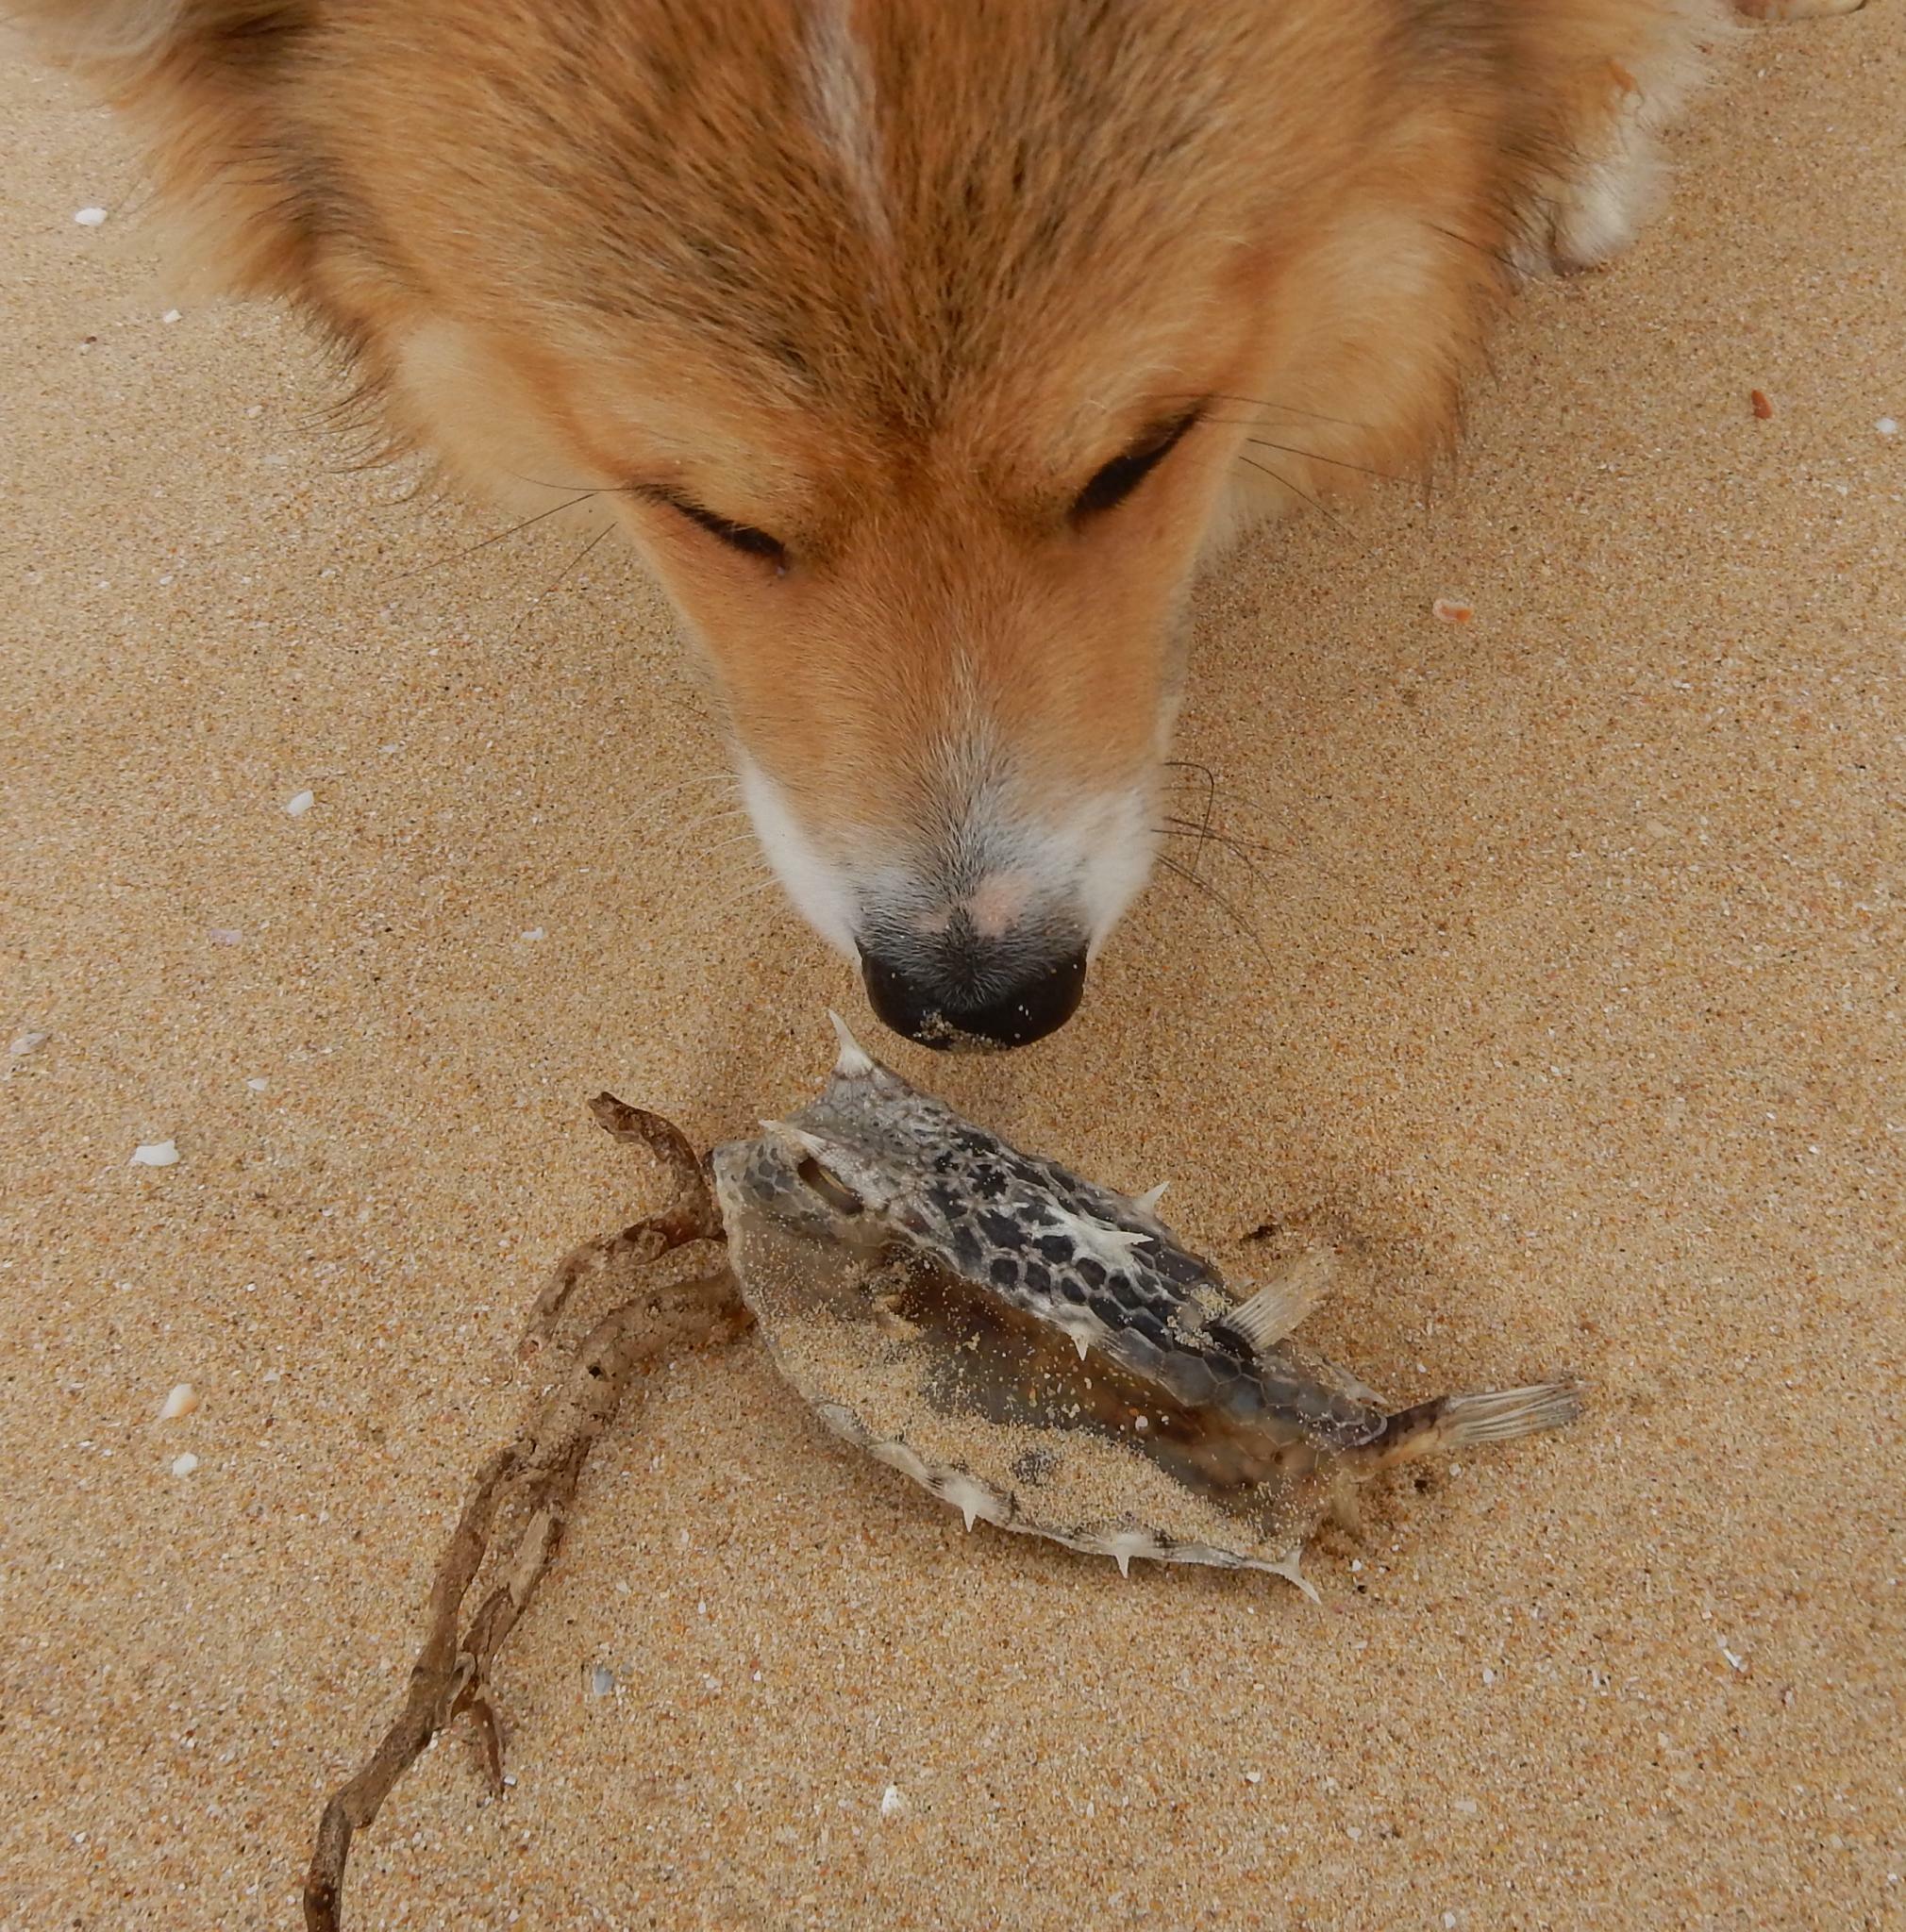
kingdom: Animalia
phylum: Chordata
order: Tetraodontiformes
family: Ostraciidae
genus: Lactoria
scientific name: Lactoria diaphana
